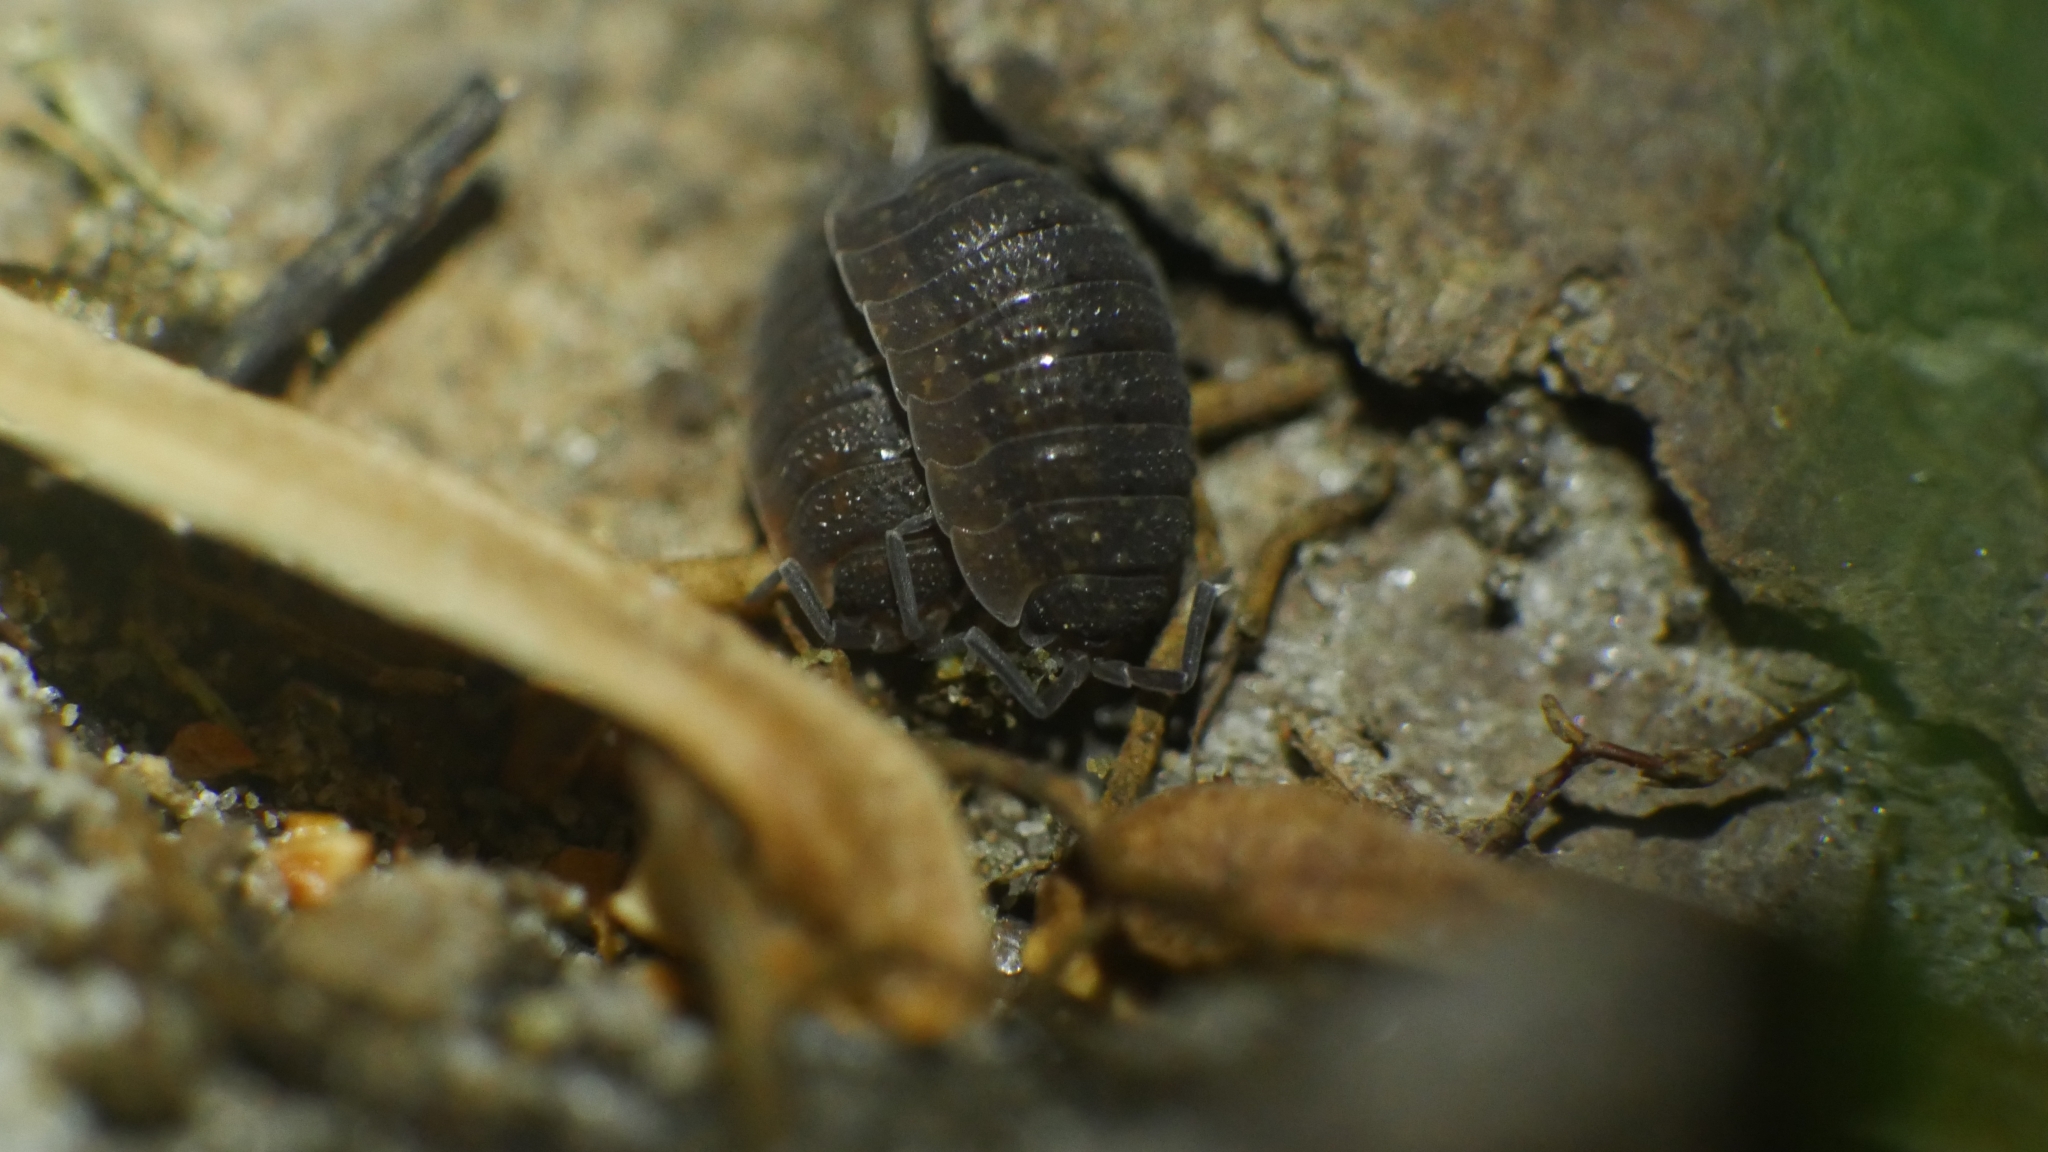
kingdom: Animalia
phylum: Arthropoda
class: Malacostraca
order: Isopoda
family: Porcellionidae
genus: Porcellio
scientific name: Porcellio scaber
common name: Common rough woodlouse
